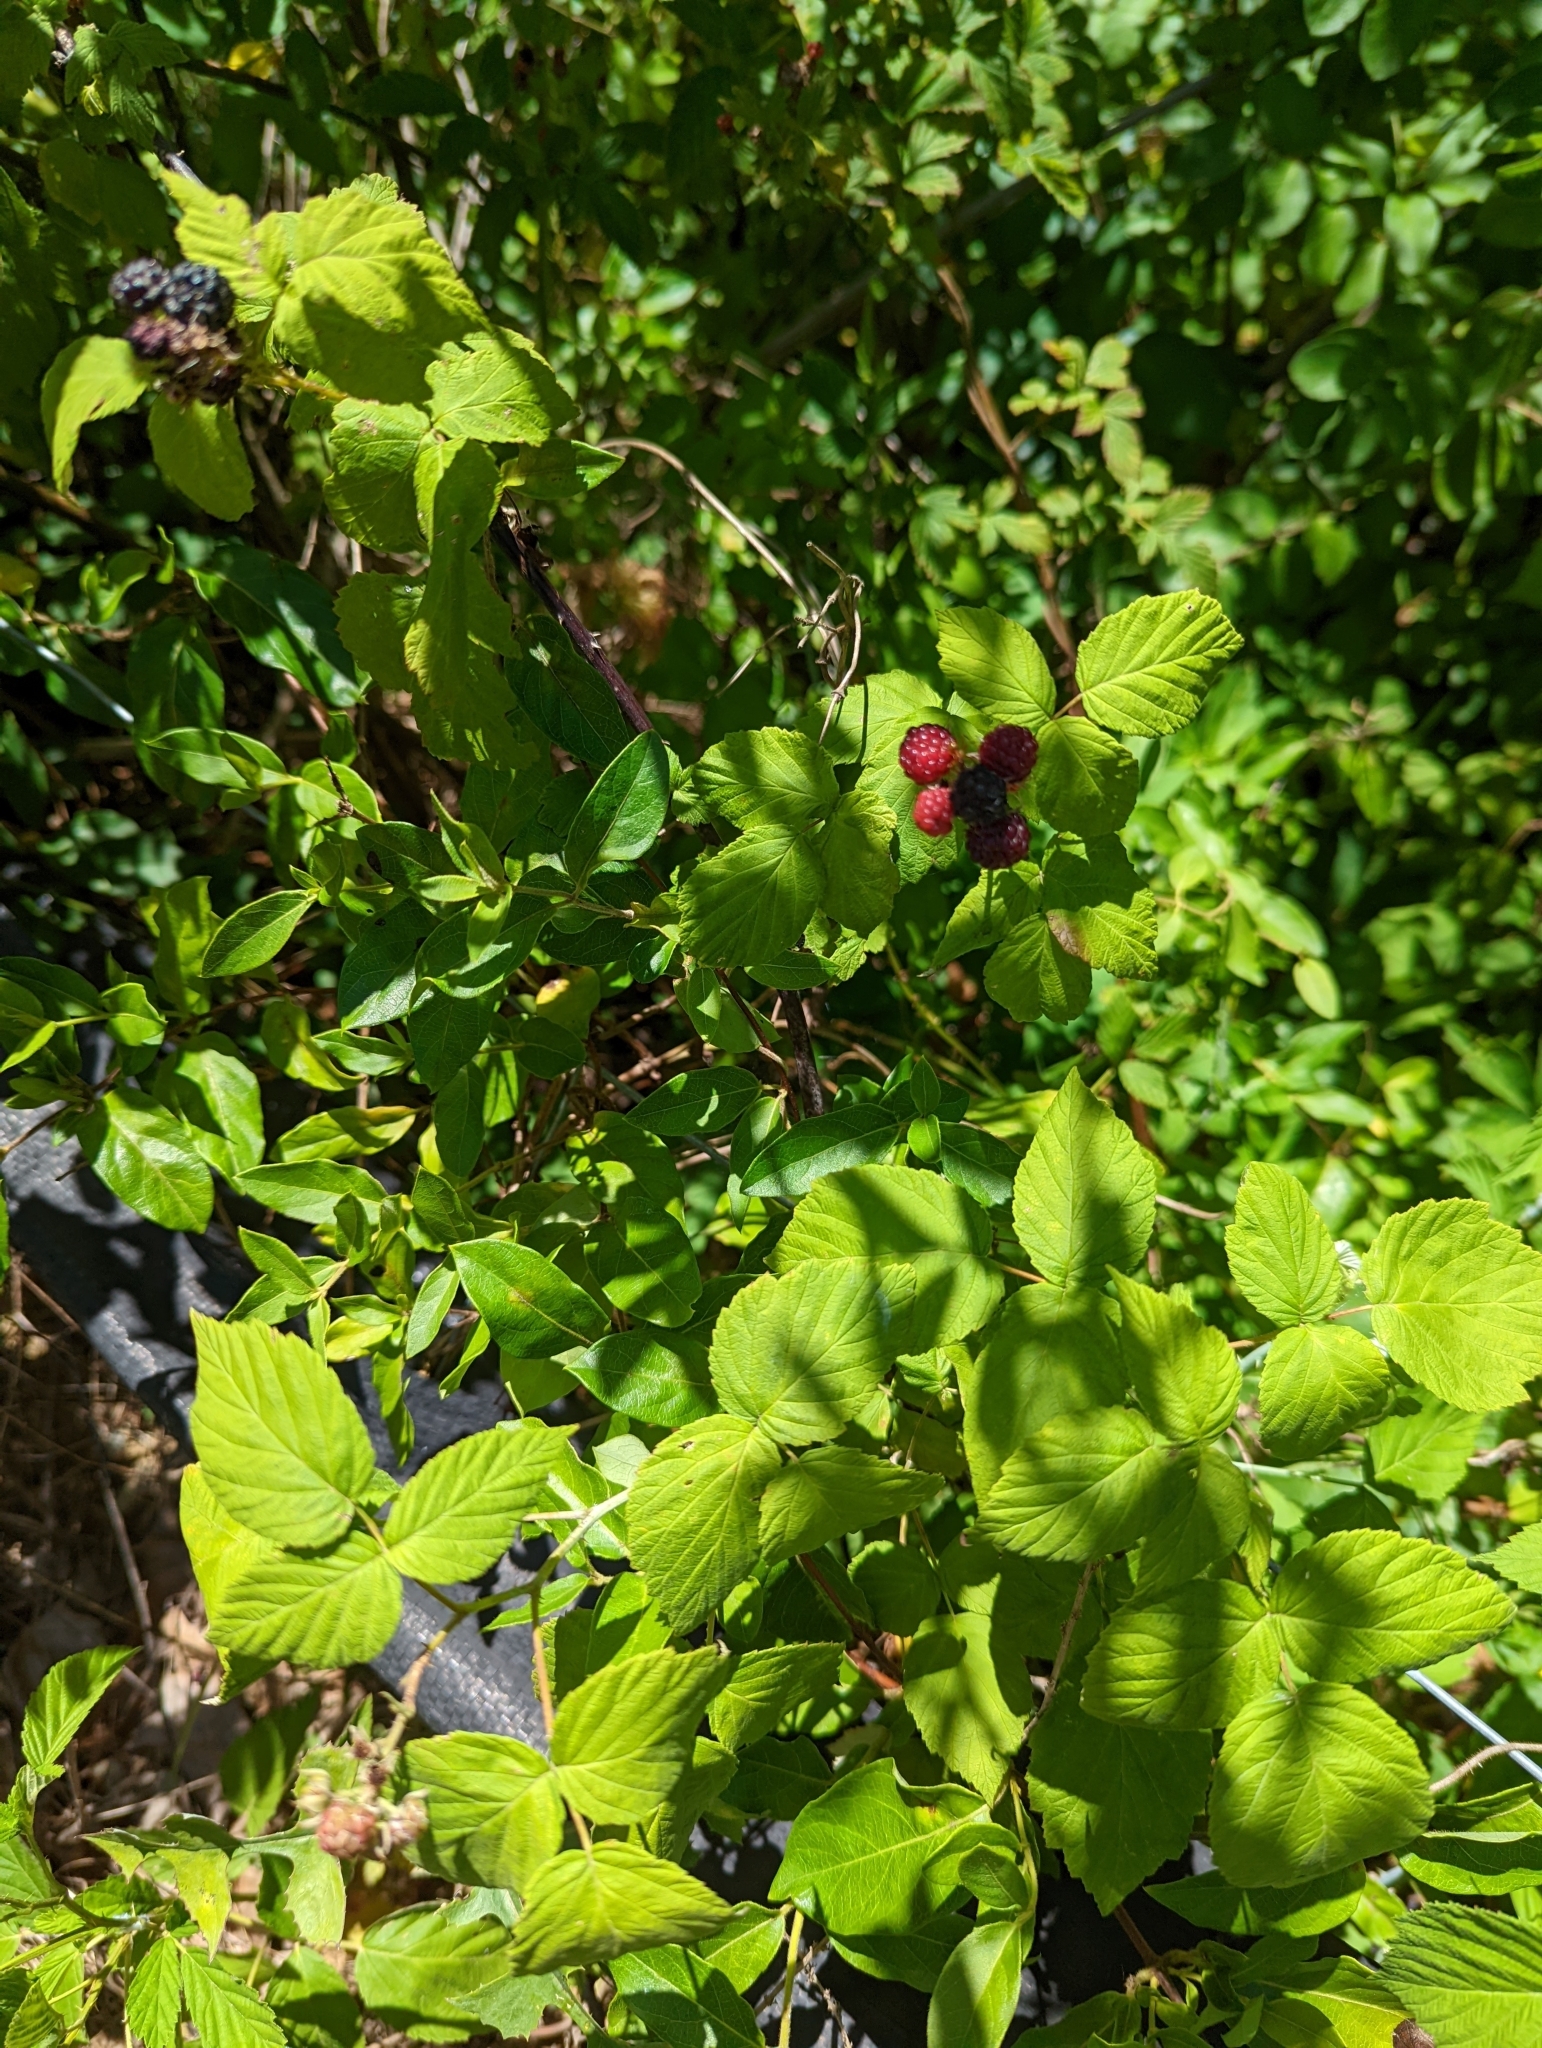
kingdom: Plantae
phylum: Tracheophyta
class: Magnoliopsida
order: Rosales
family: Rosaceae
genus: Rubus
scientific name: Rubus occidentalis
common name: Black raspberry
